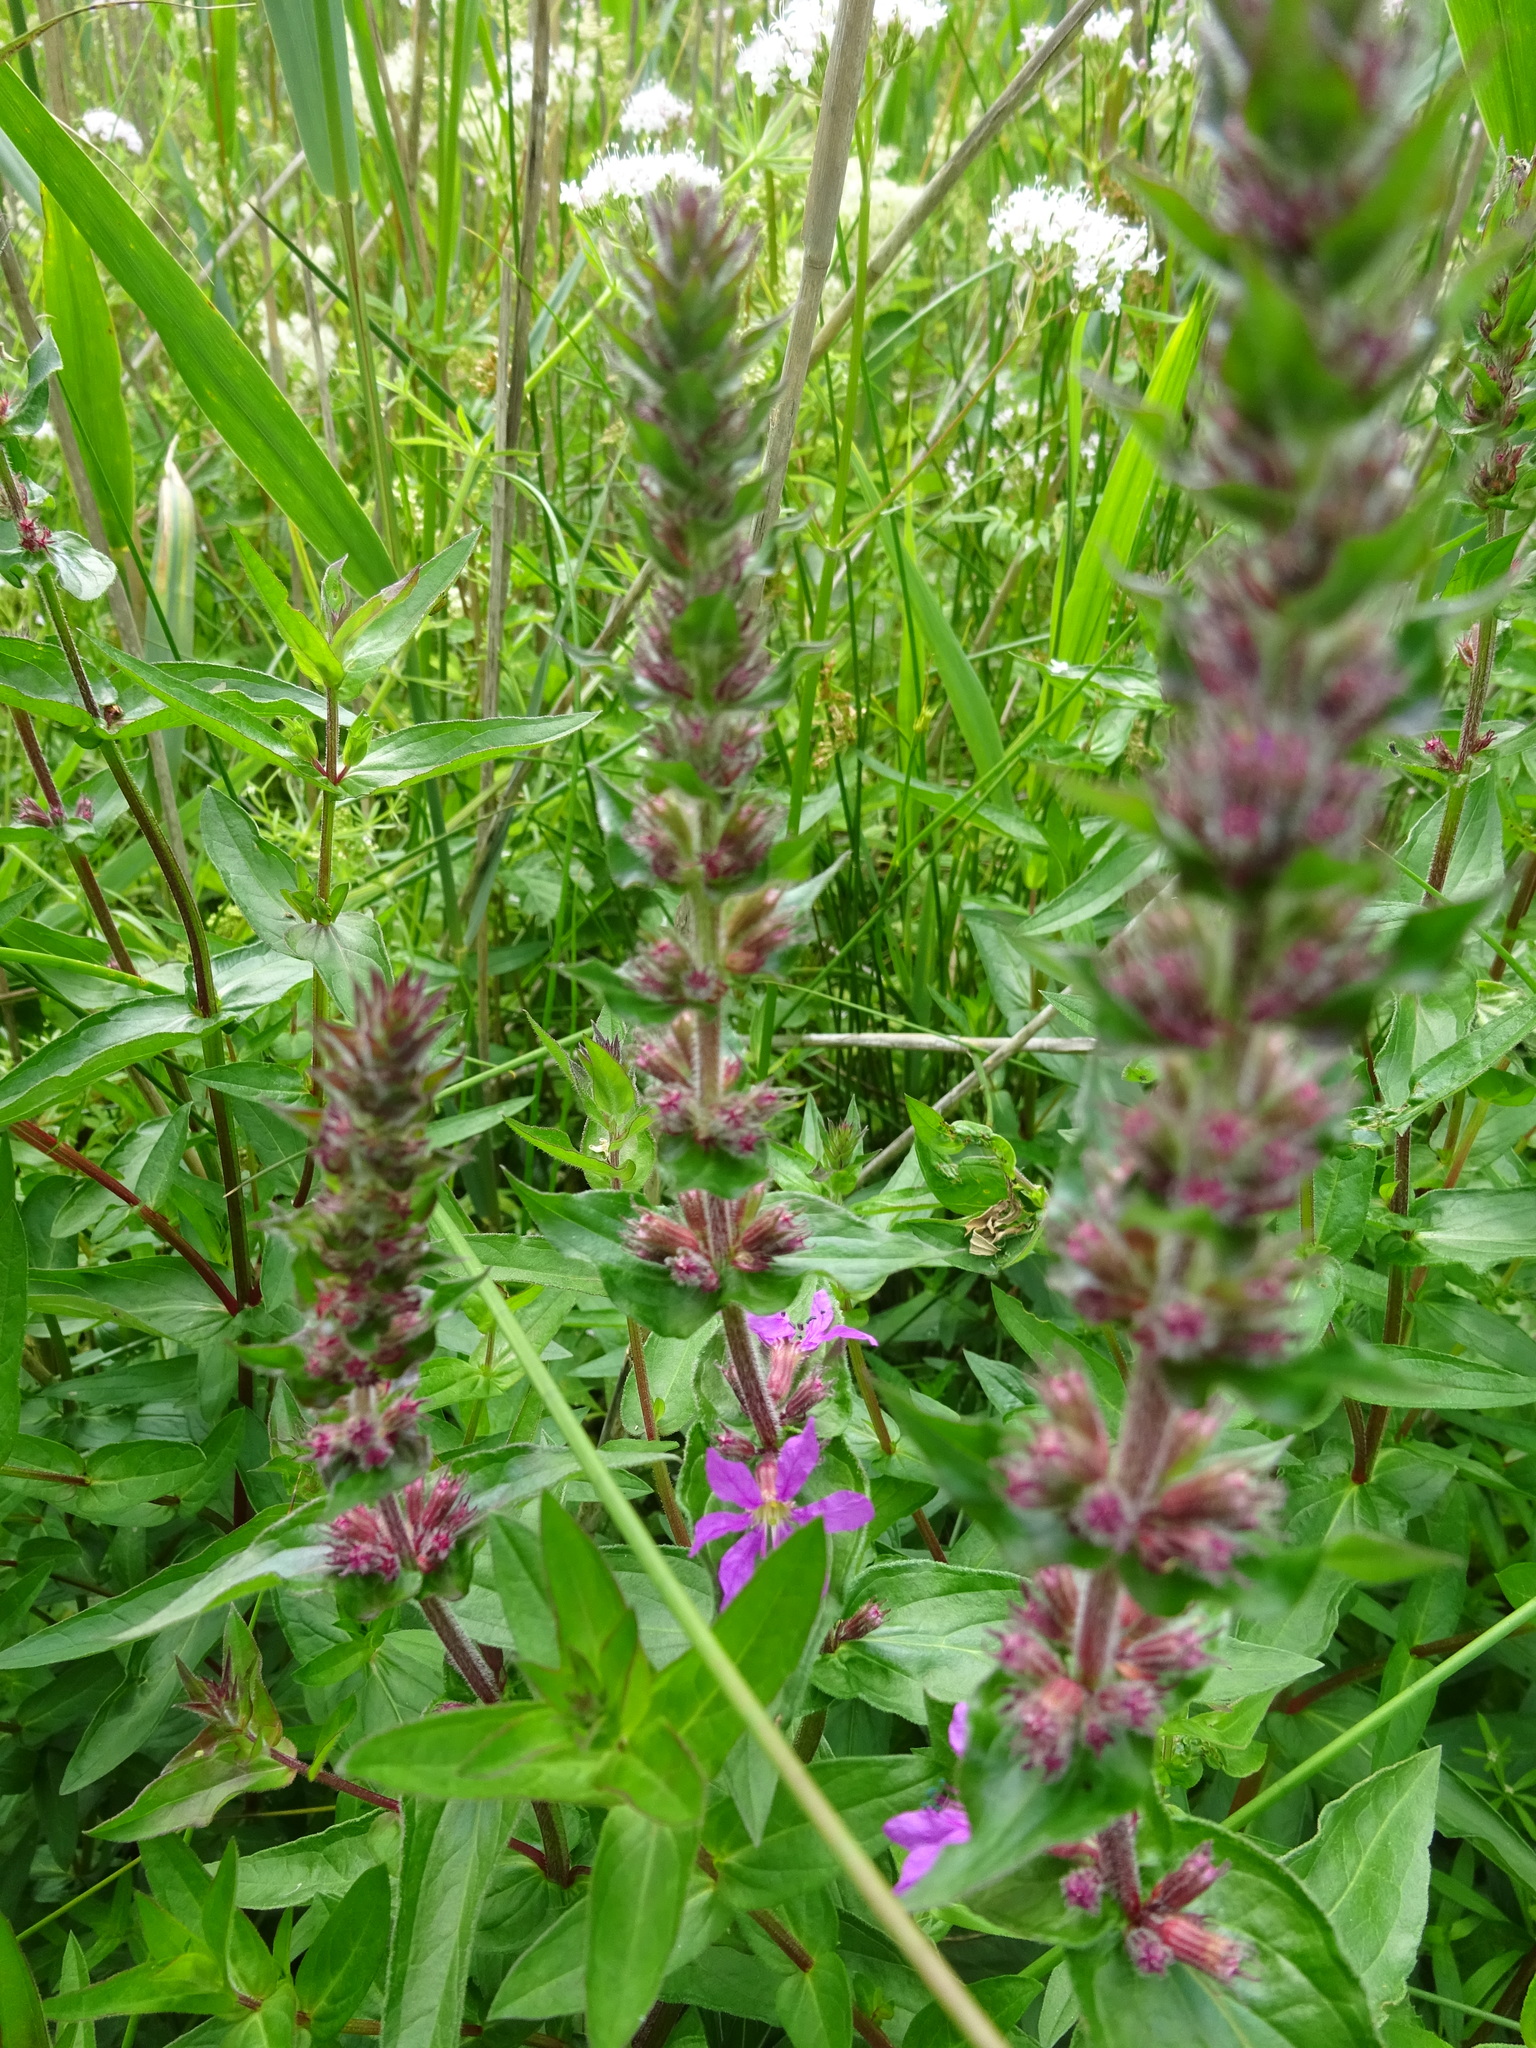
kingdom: Plantae
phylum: Tracheophyta
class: Magnoliopsida
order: Myrtales
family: Lythraceae
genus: Lythrum
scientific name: Lythrum salicaria
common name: Purple loosestrife
